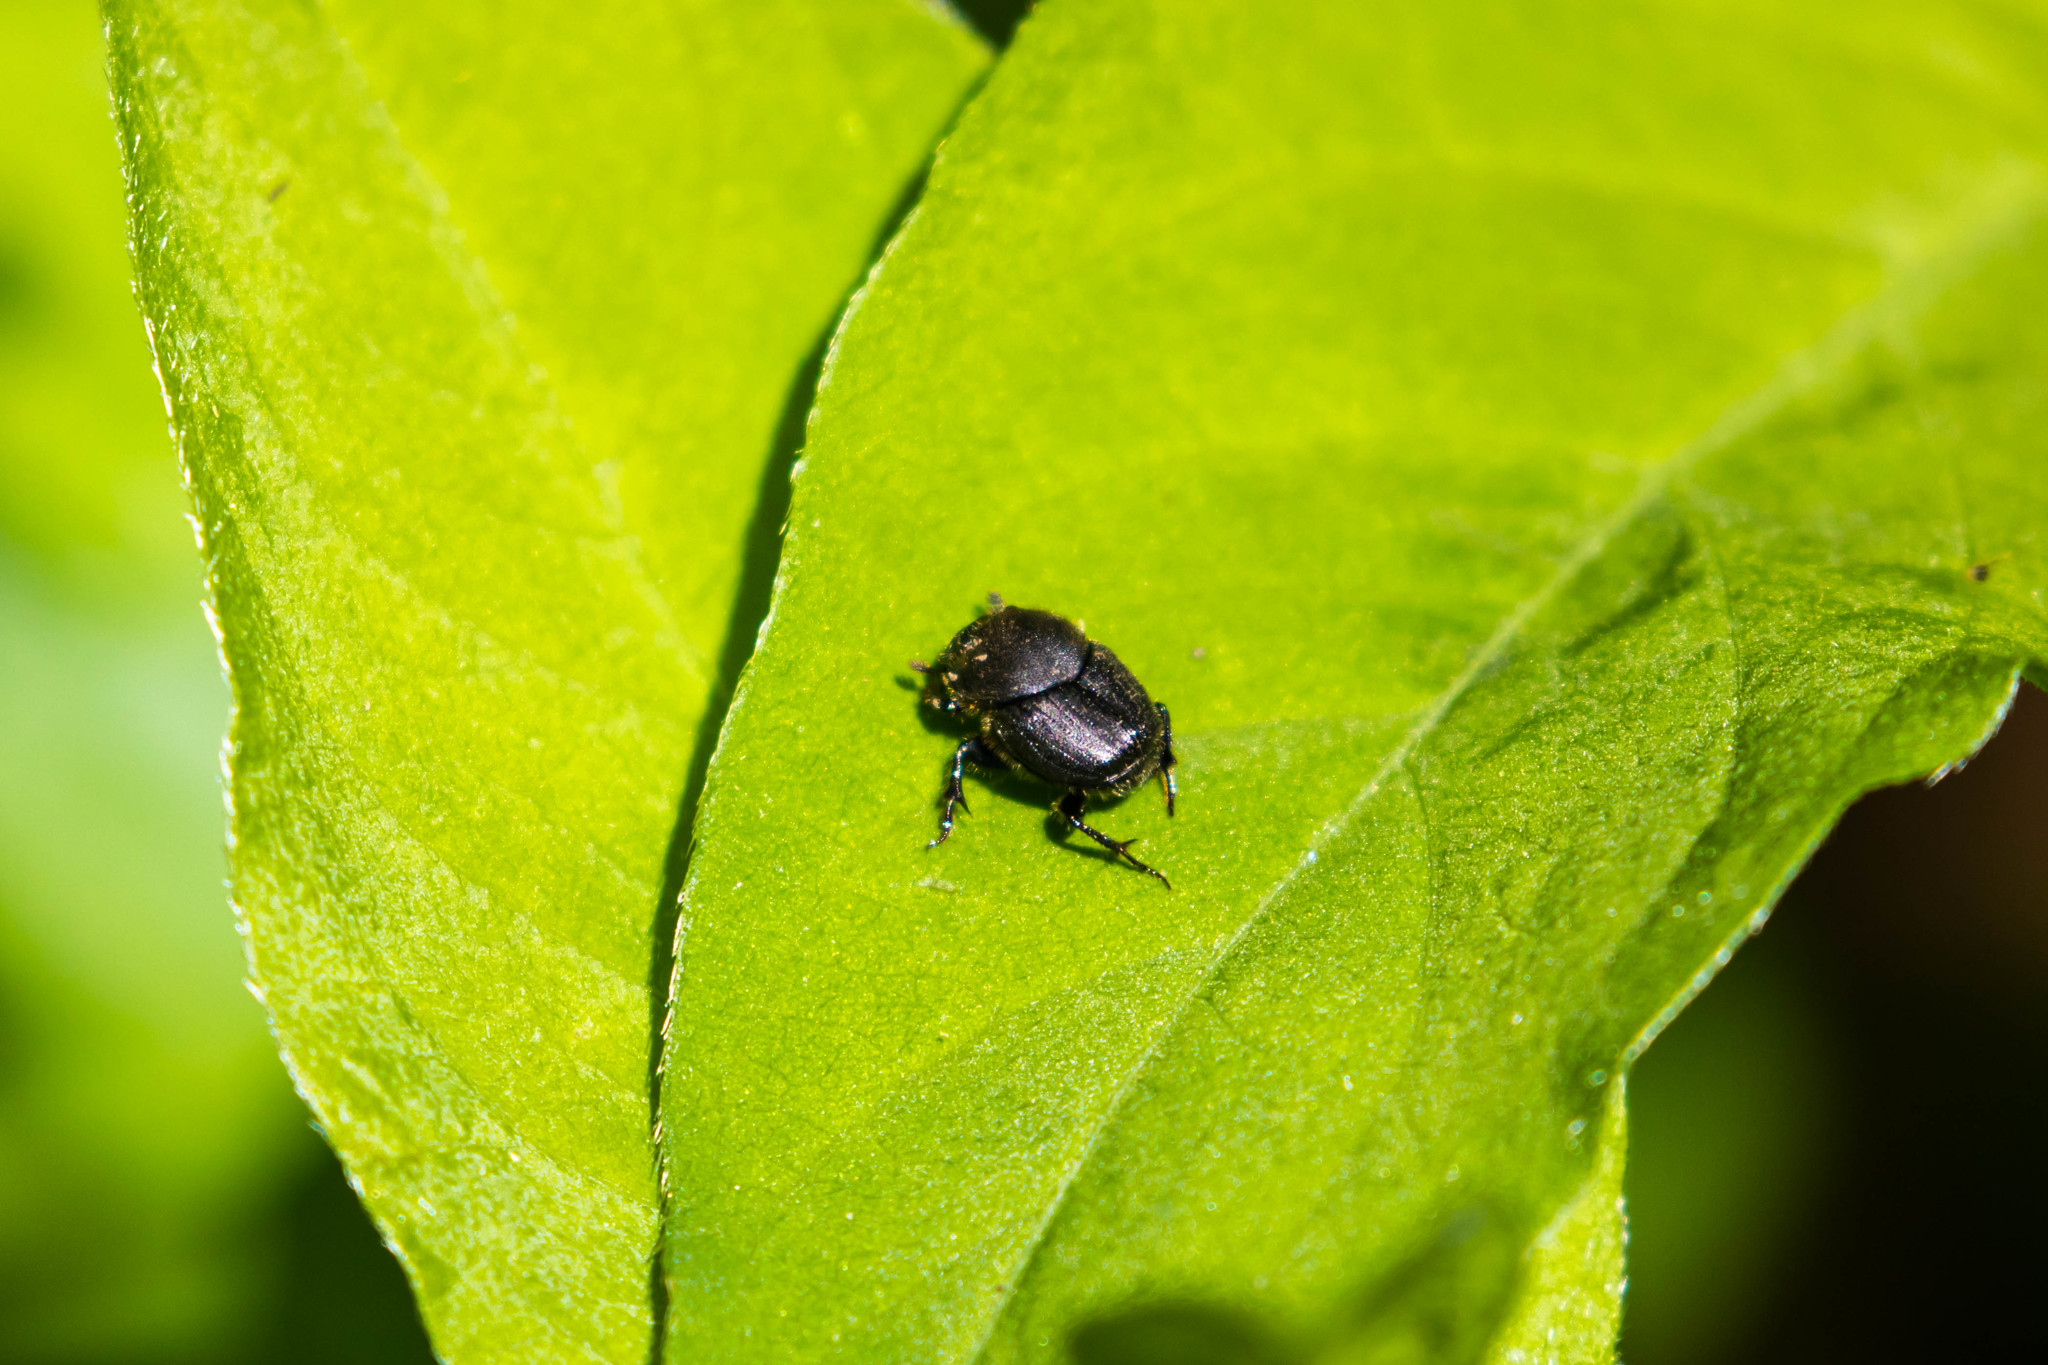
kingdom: Animalia
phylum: Arthropoda
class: Insecta
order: Coleoptera
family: Scarabaeidae
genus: Onthophagus
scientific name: Onthophagus hecate
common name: Scooped scarab
